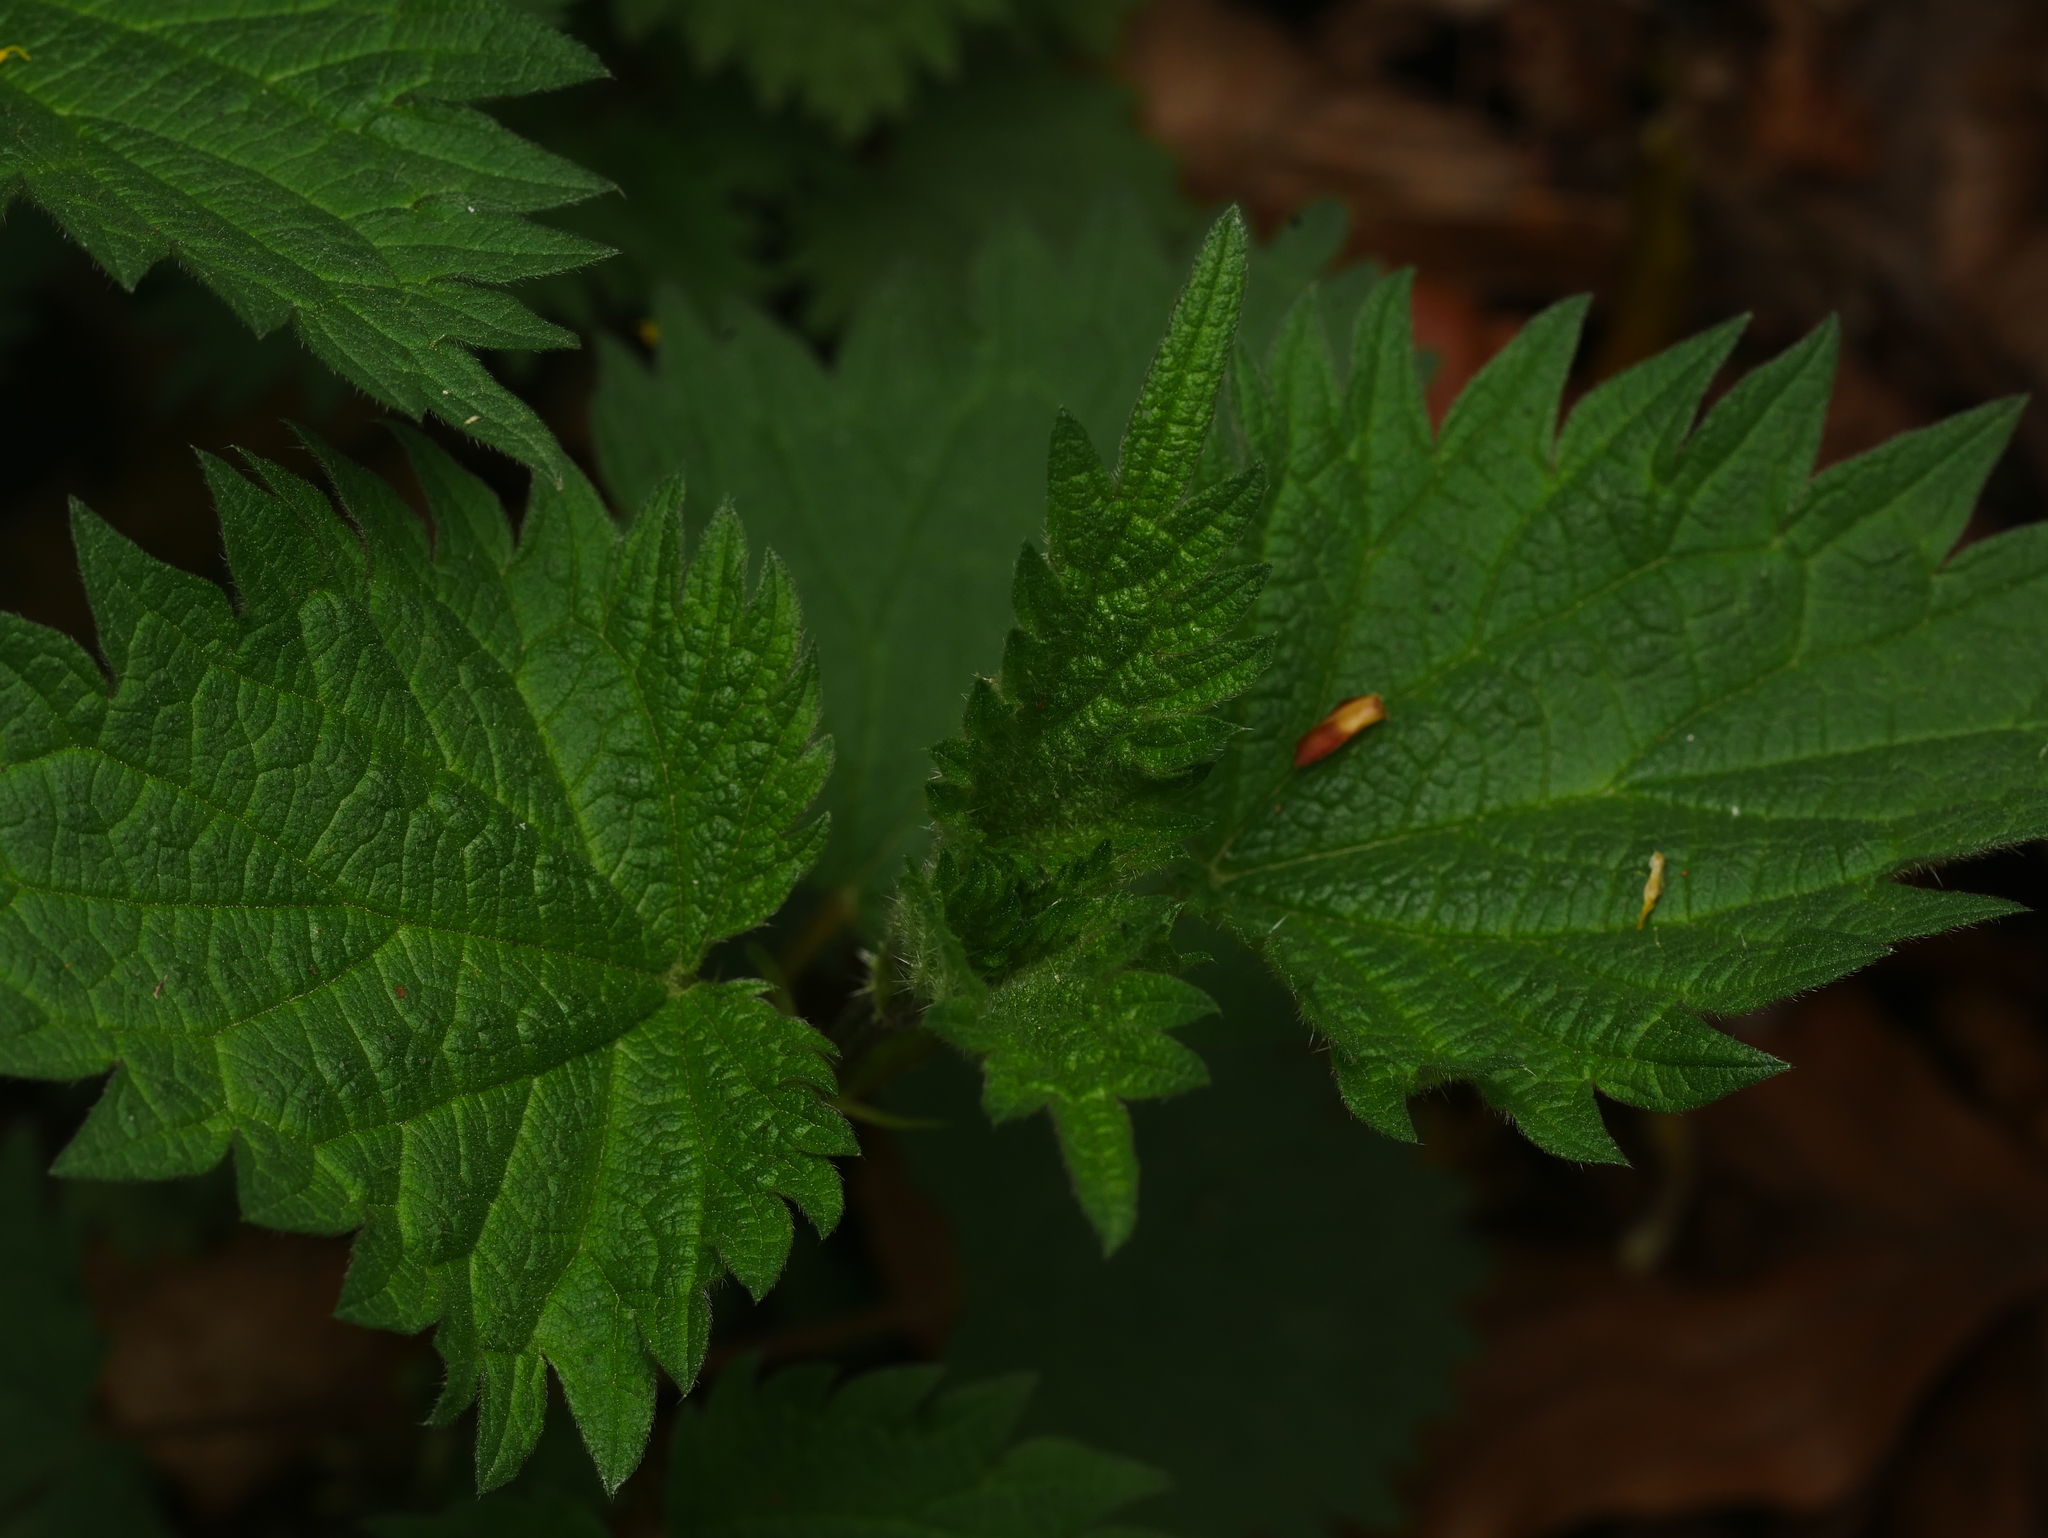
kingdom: Plantae
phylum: Tracheophyta
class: Magnoliopsida
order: Rosales
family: Urticaceae
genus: Urtica
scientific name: Urtica dioica
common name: Common nettle
